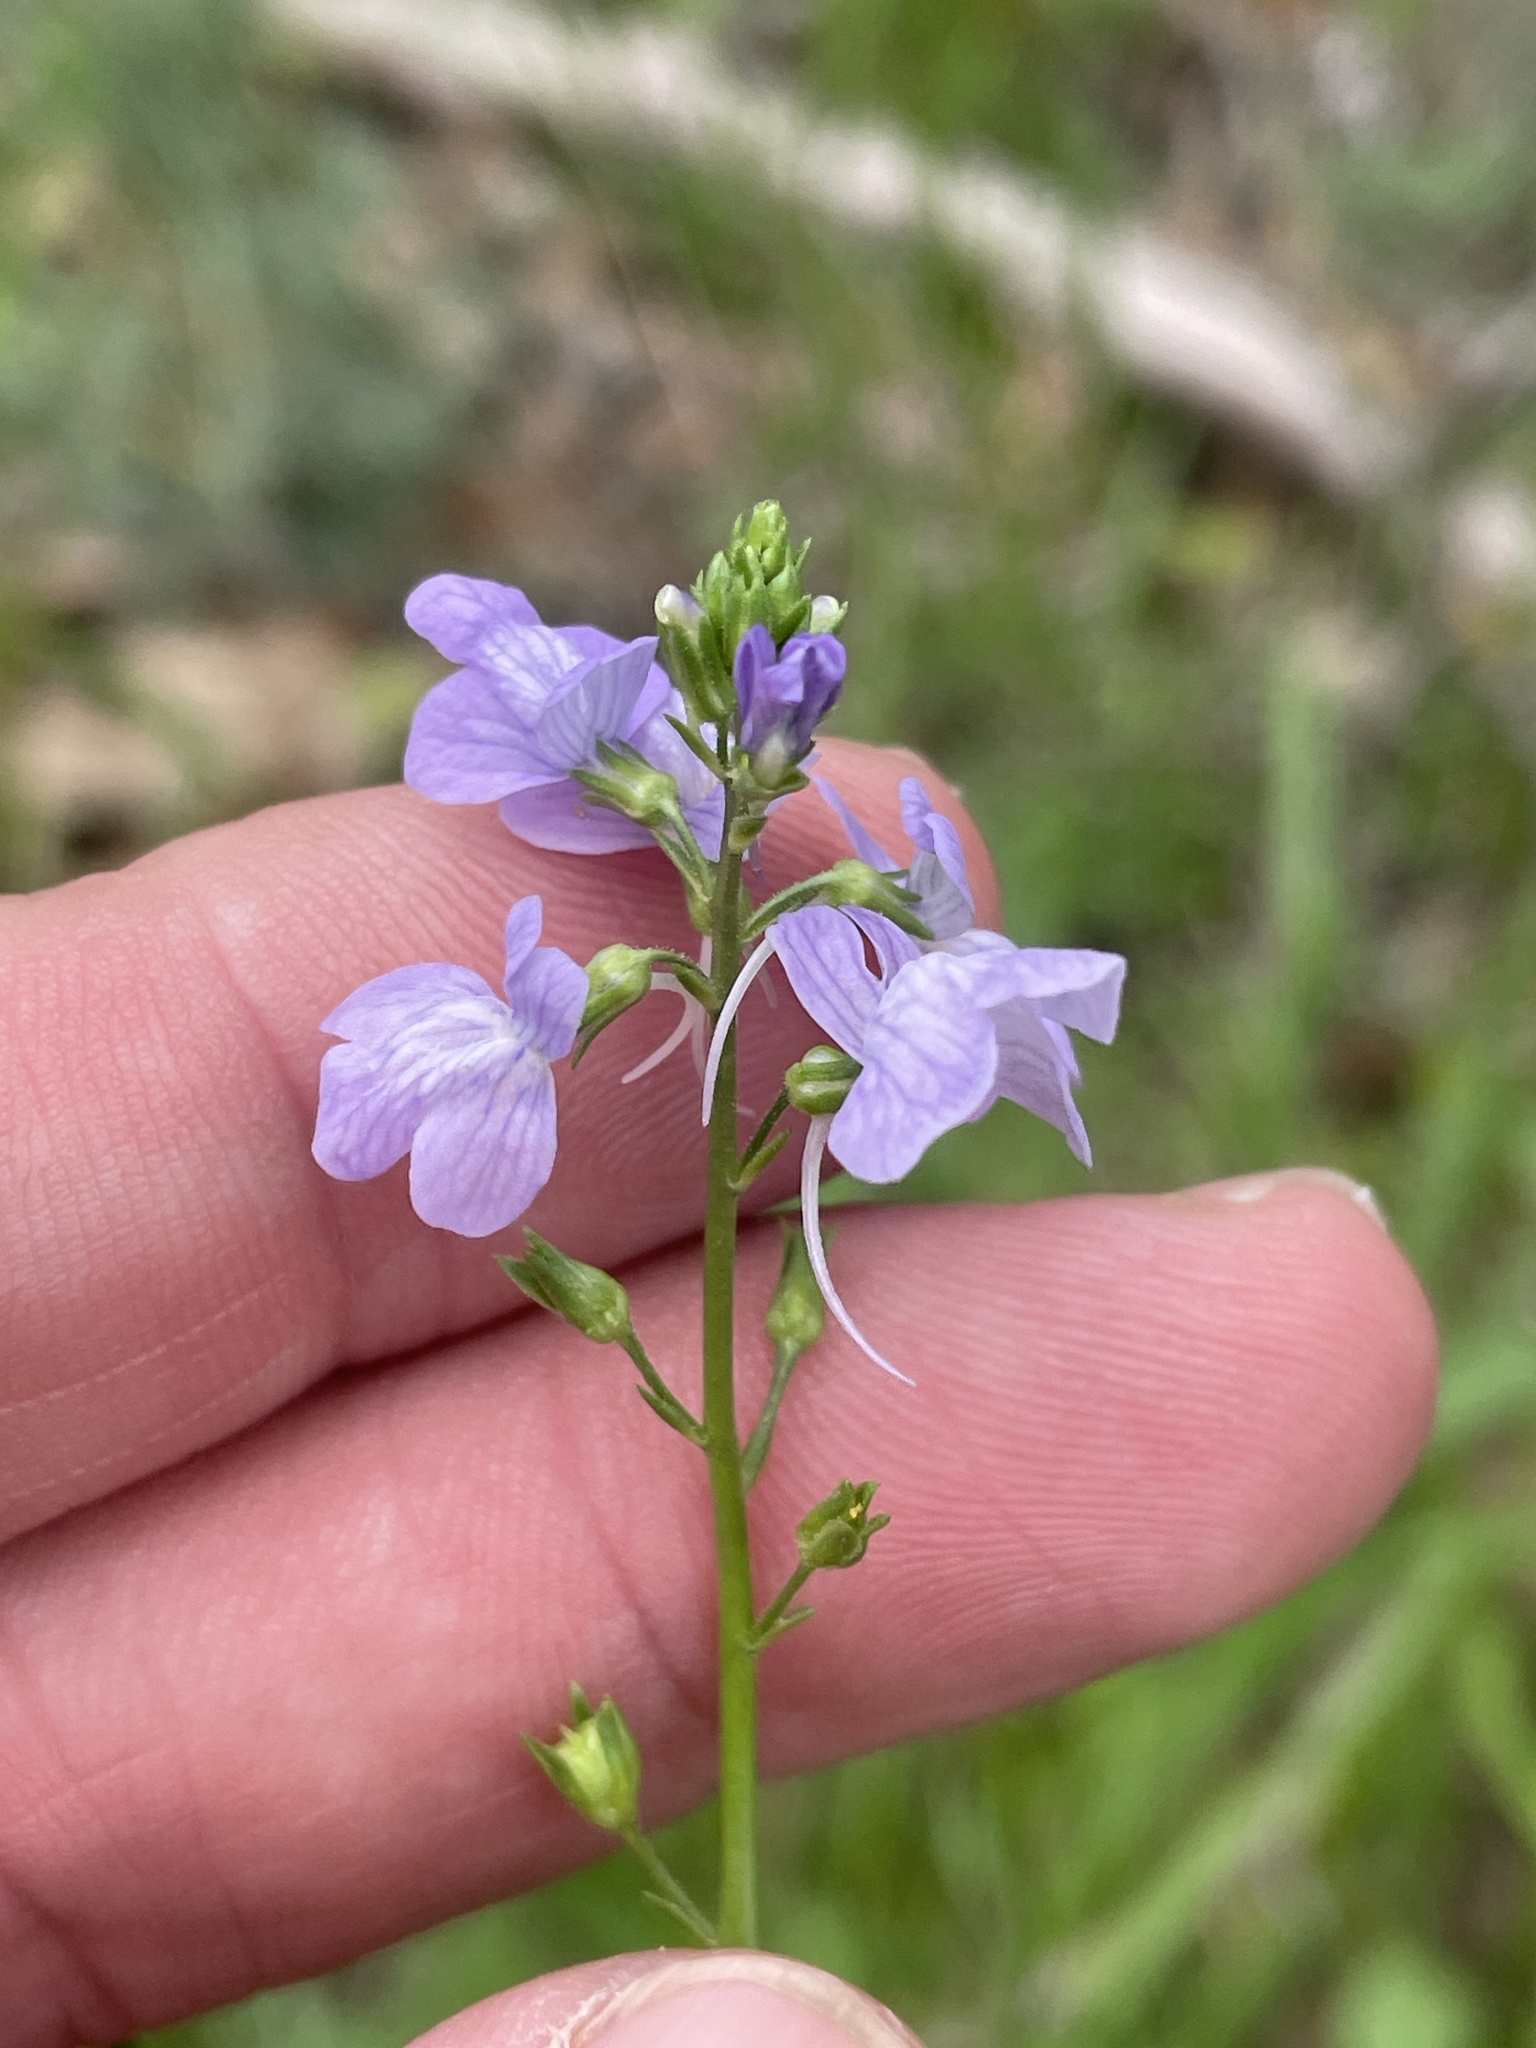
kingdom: Plantae
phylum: Tracheophyta
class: Magnoliopsida
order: Lamiales
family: Plantaginaceae
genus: Nuttallanthus
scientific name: Nuttallanthus texanus
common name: Texas toadflax
